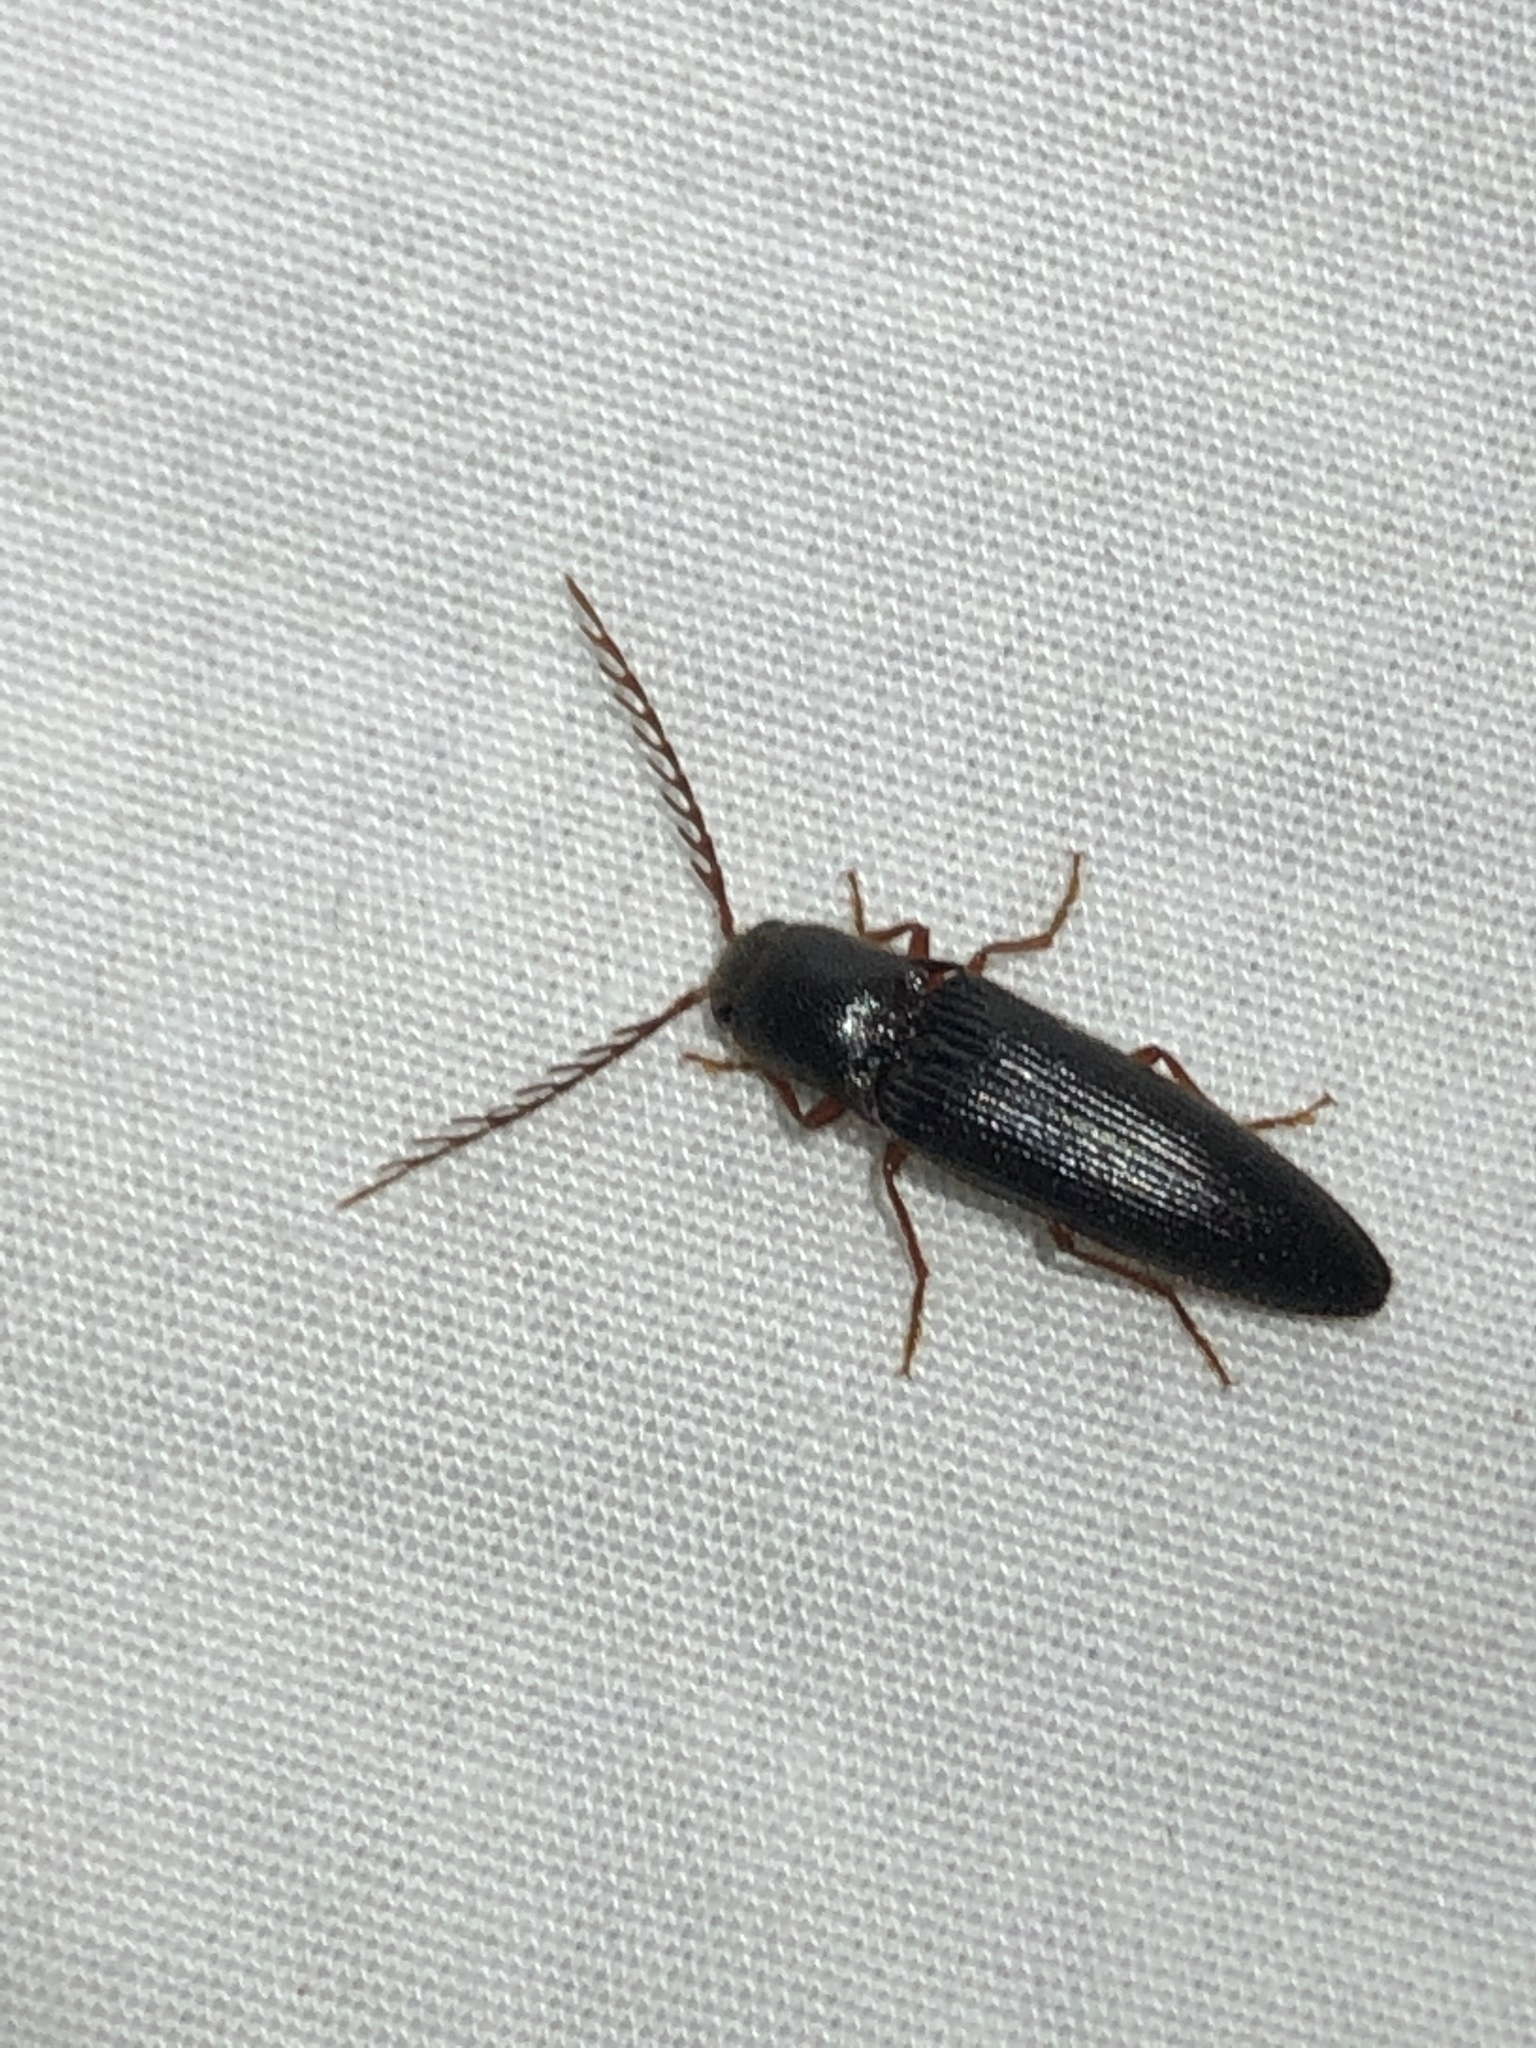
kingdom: Animalia
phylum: Arthropoda
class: Insecta
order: Coleoptera
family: Elateridae
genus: Dicrepidius
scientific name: Dicrepidius corvinus
